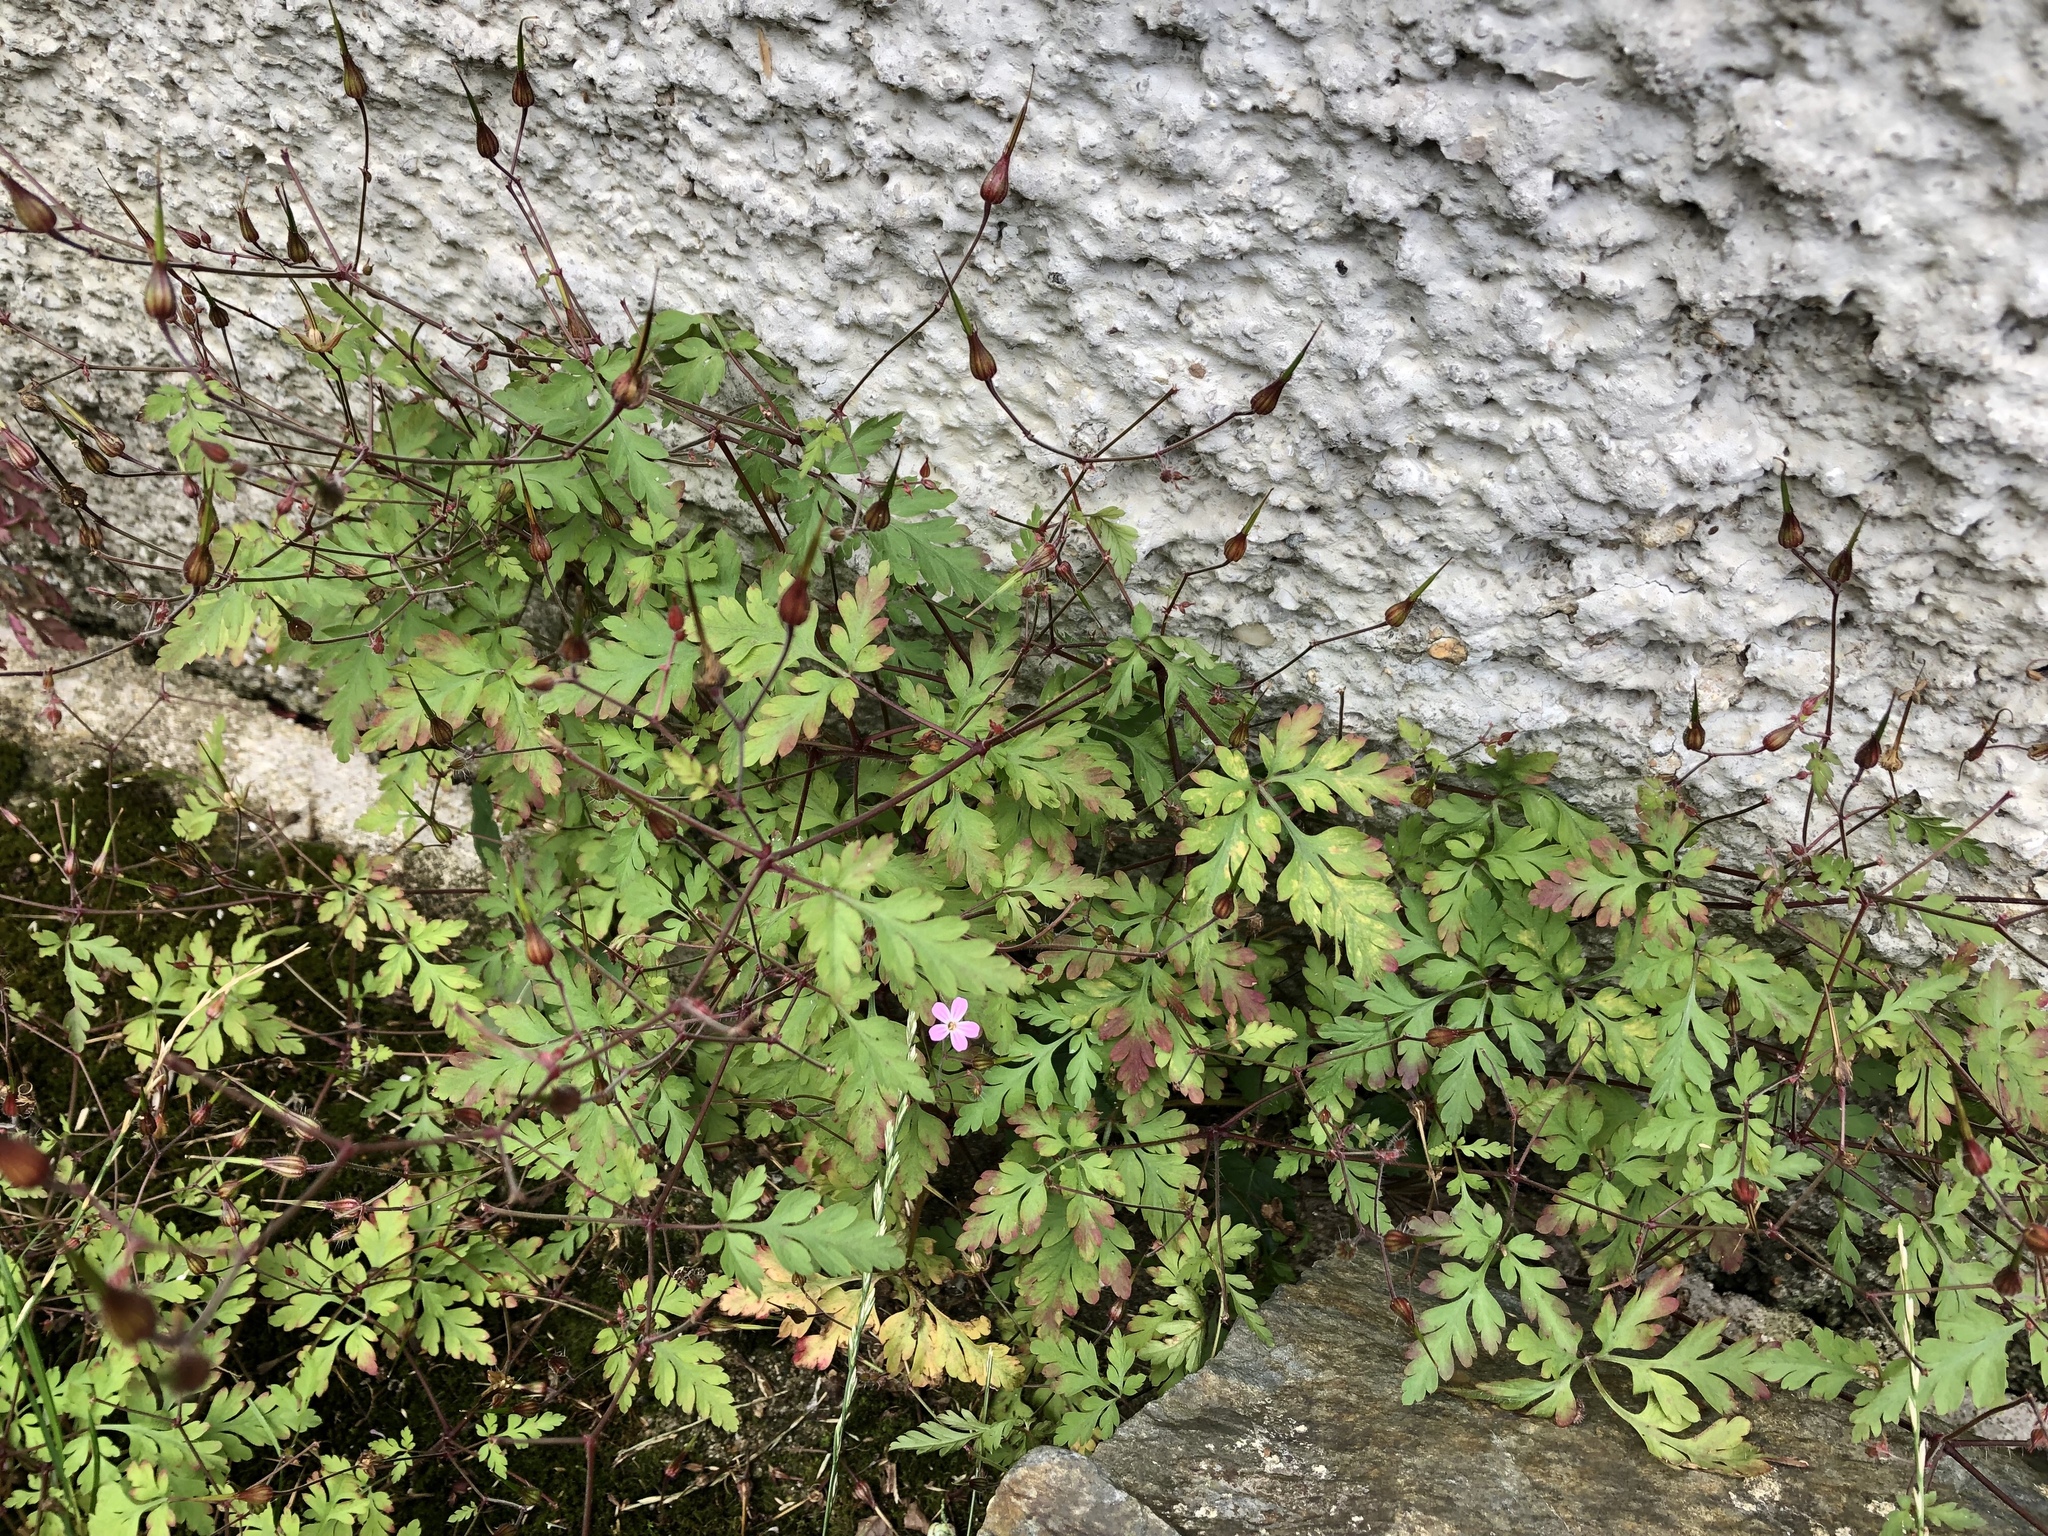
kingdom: Plantae
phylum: Tracheophyta
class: Magnoliopsida
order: Geraniales
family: Geraniaceae
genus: Geranium
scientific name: Geranium robertianum
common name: Herb-robert
